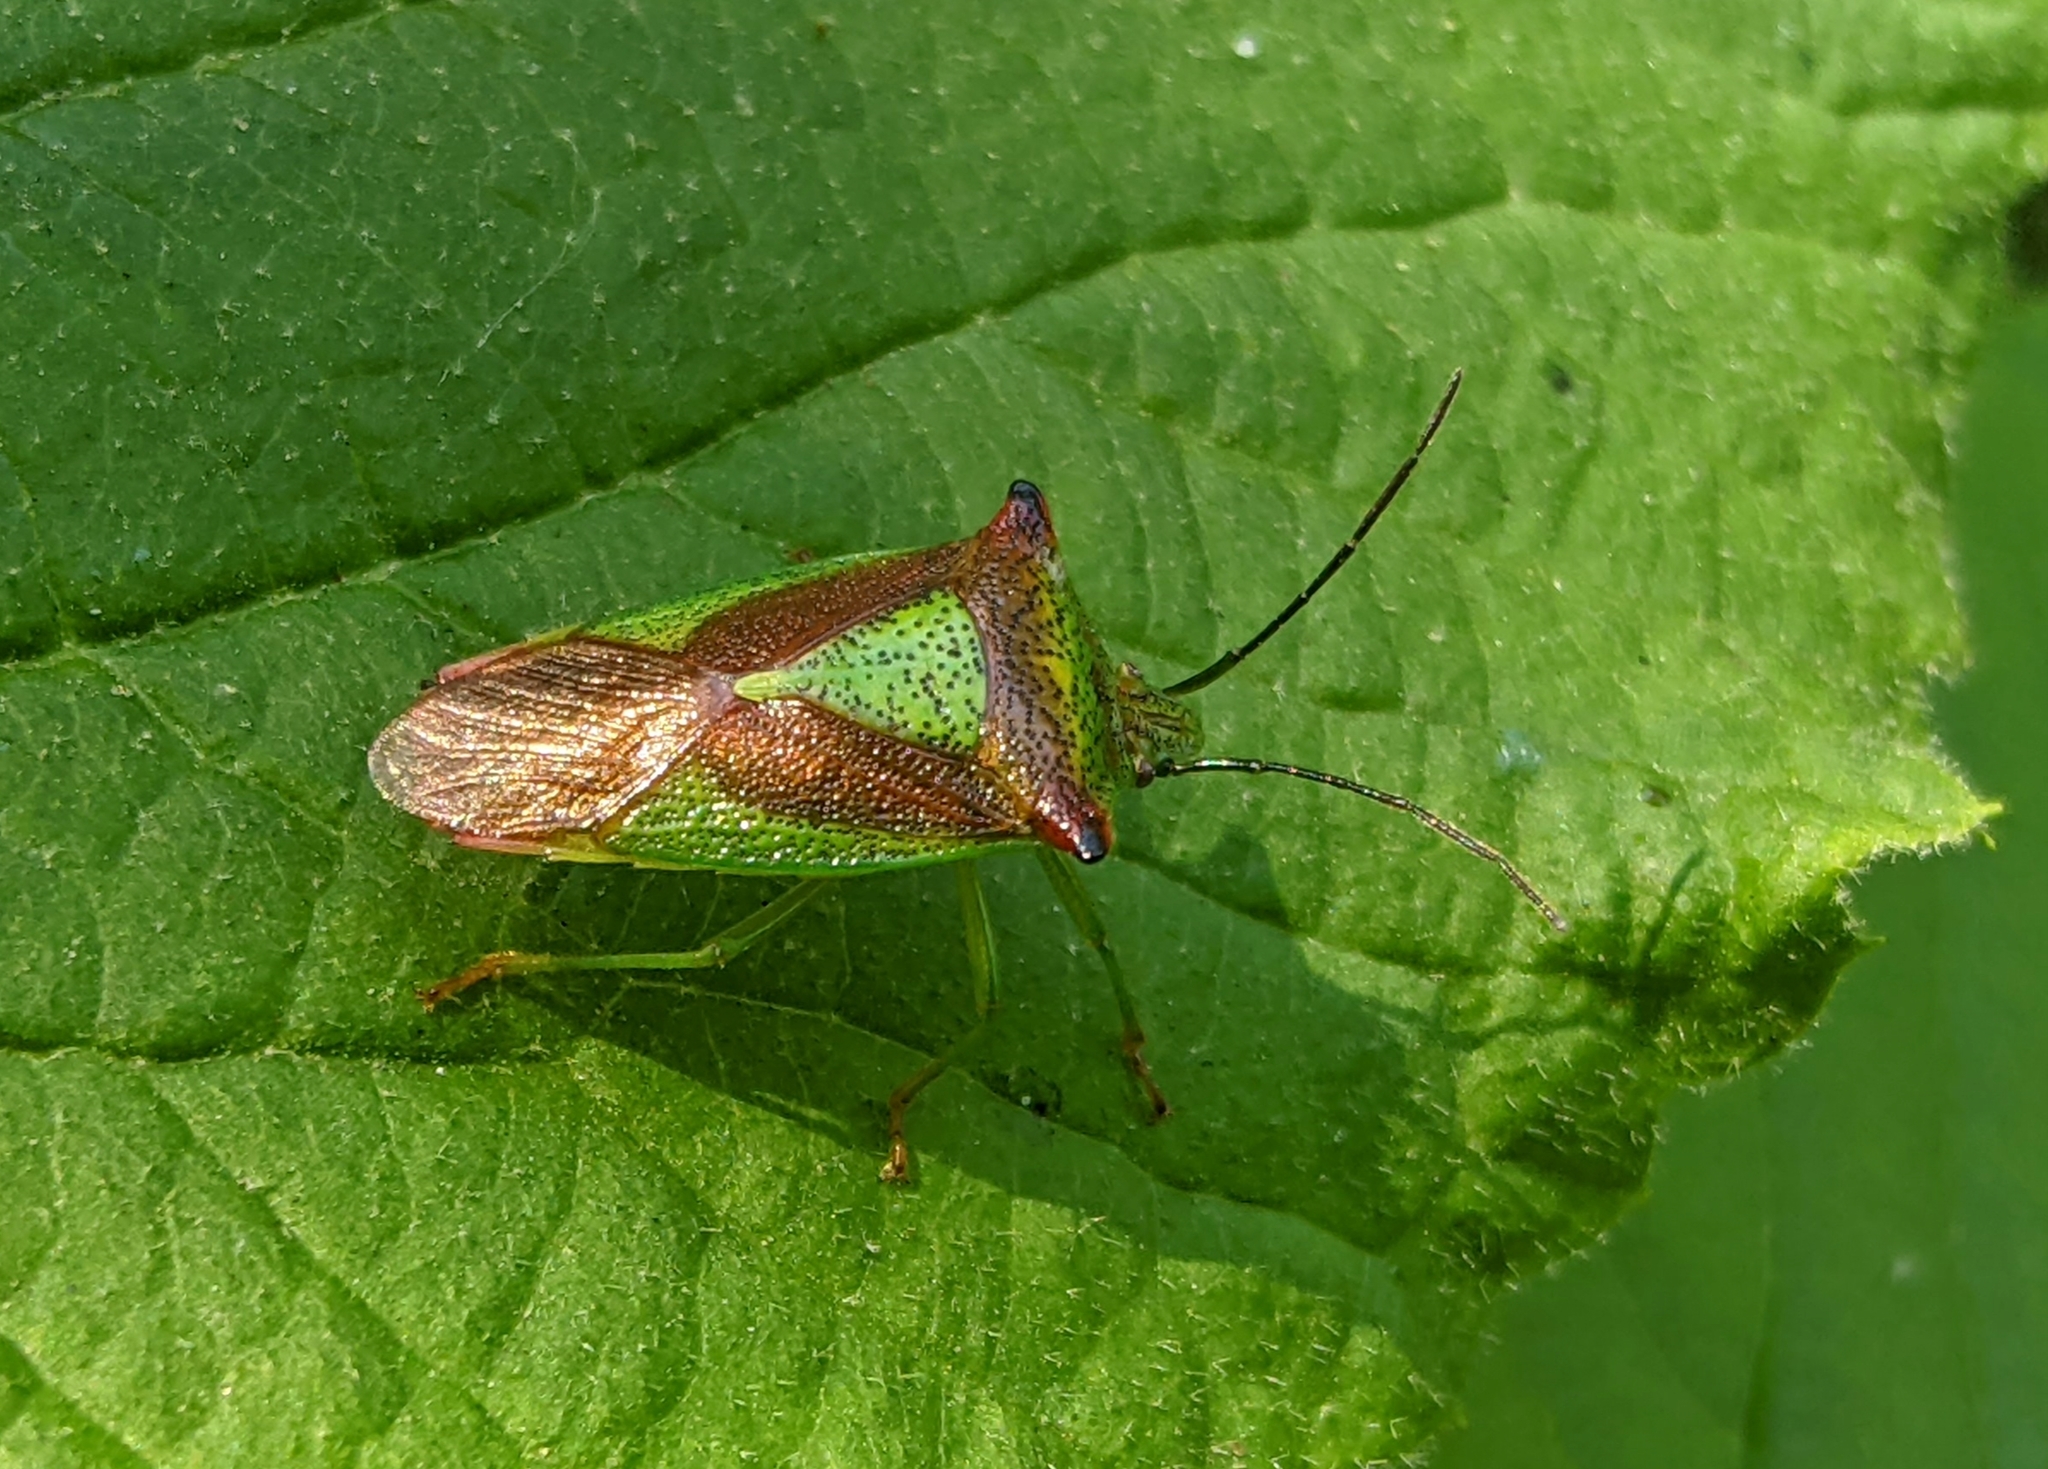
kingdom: Animalia
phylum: Arthropoda
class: Insecta
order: Hemiptera
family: Acanthosomatidae
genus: Acanthosoma
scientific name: Acanthosoma haemorrhoidale
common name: Hawthorn shieldbug
